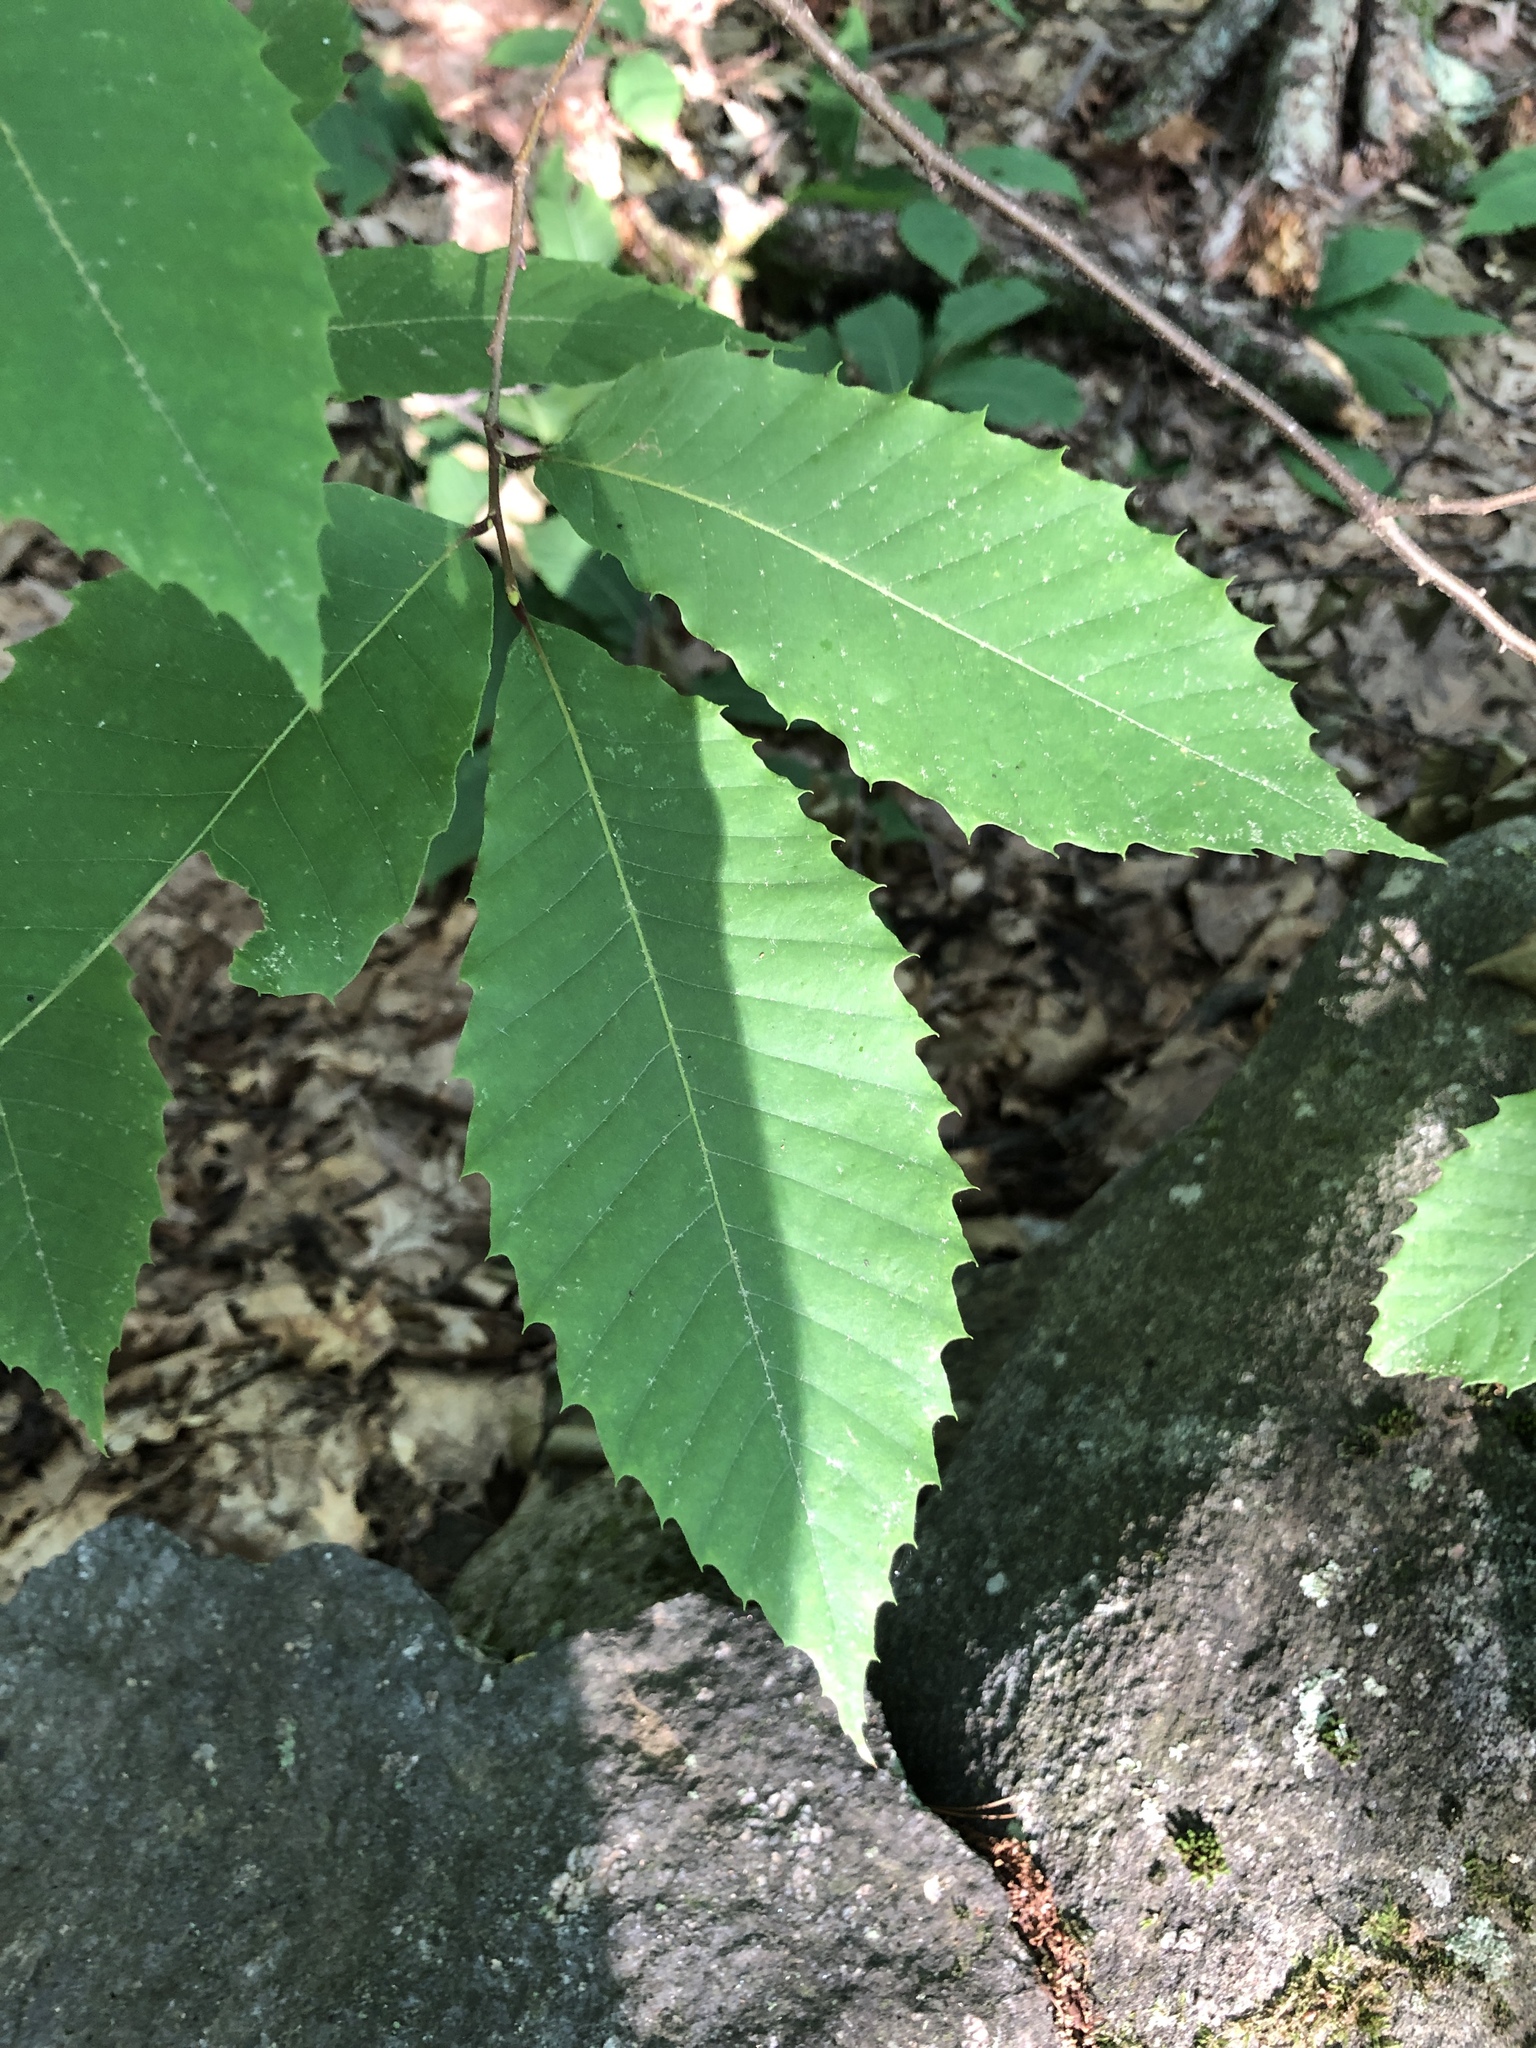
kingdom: Plantae
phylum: Tracheophyta
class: Magnoliopsida
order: Fagales
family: Fagaceae
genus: Castanea
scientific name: Castanea dentata
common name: American chestnut
